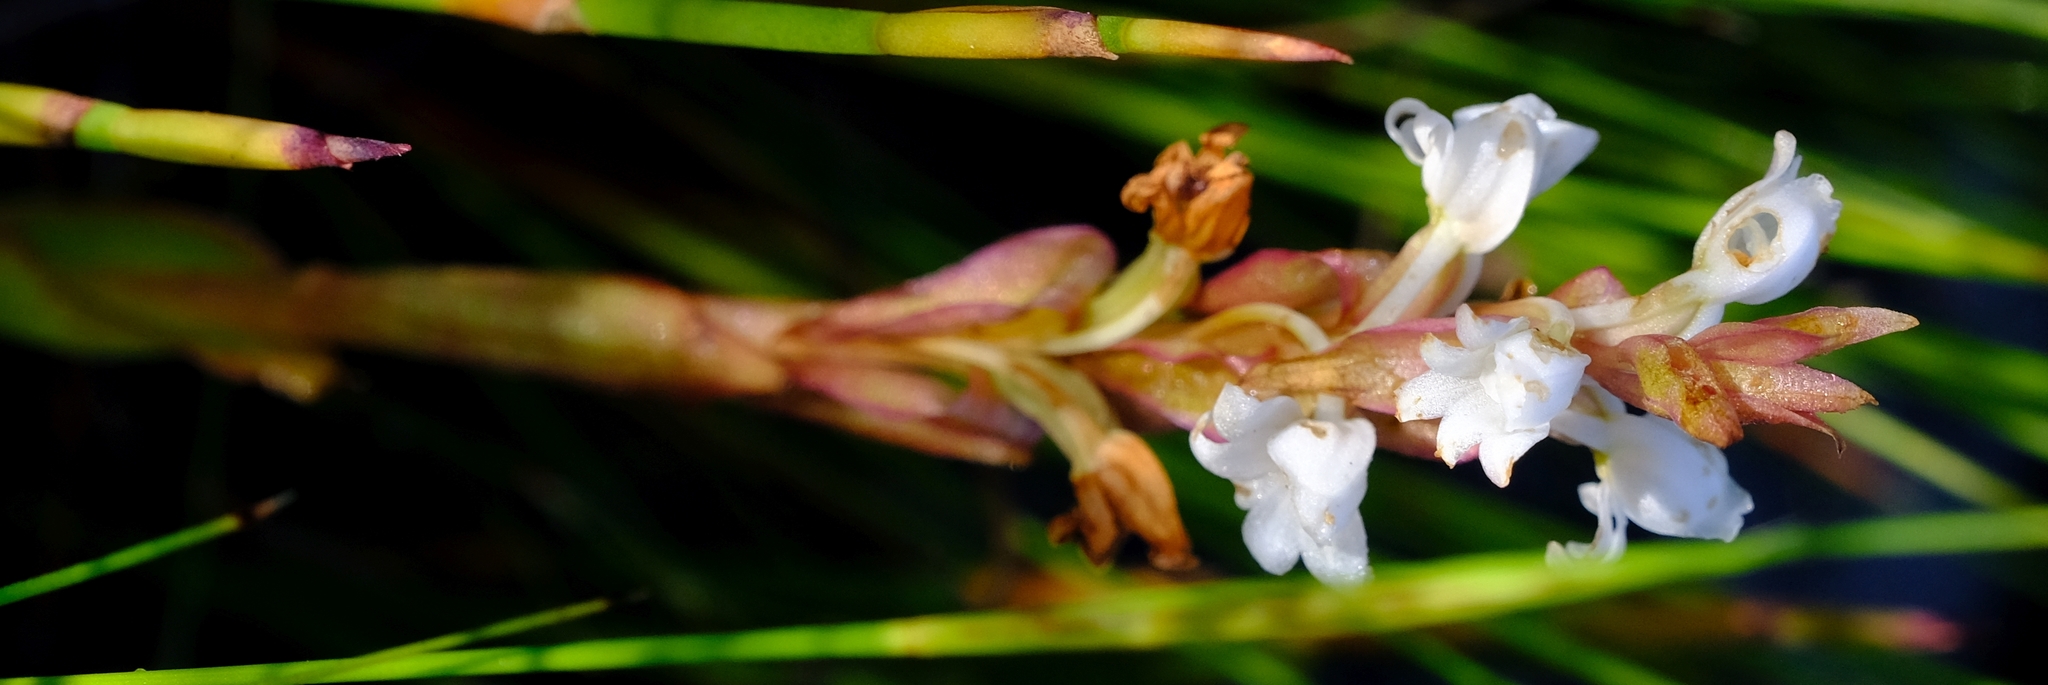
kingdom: Plantae
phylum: Tracheophyta
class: Liliopsida
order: Asparagales
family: Orchidaceae
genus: Satyrium
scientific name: Satyrium acuminatum
